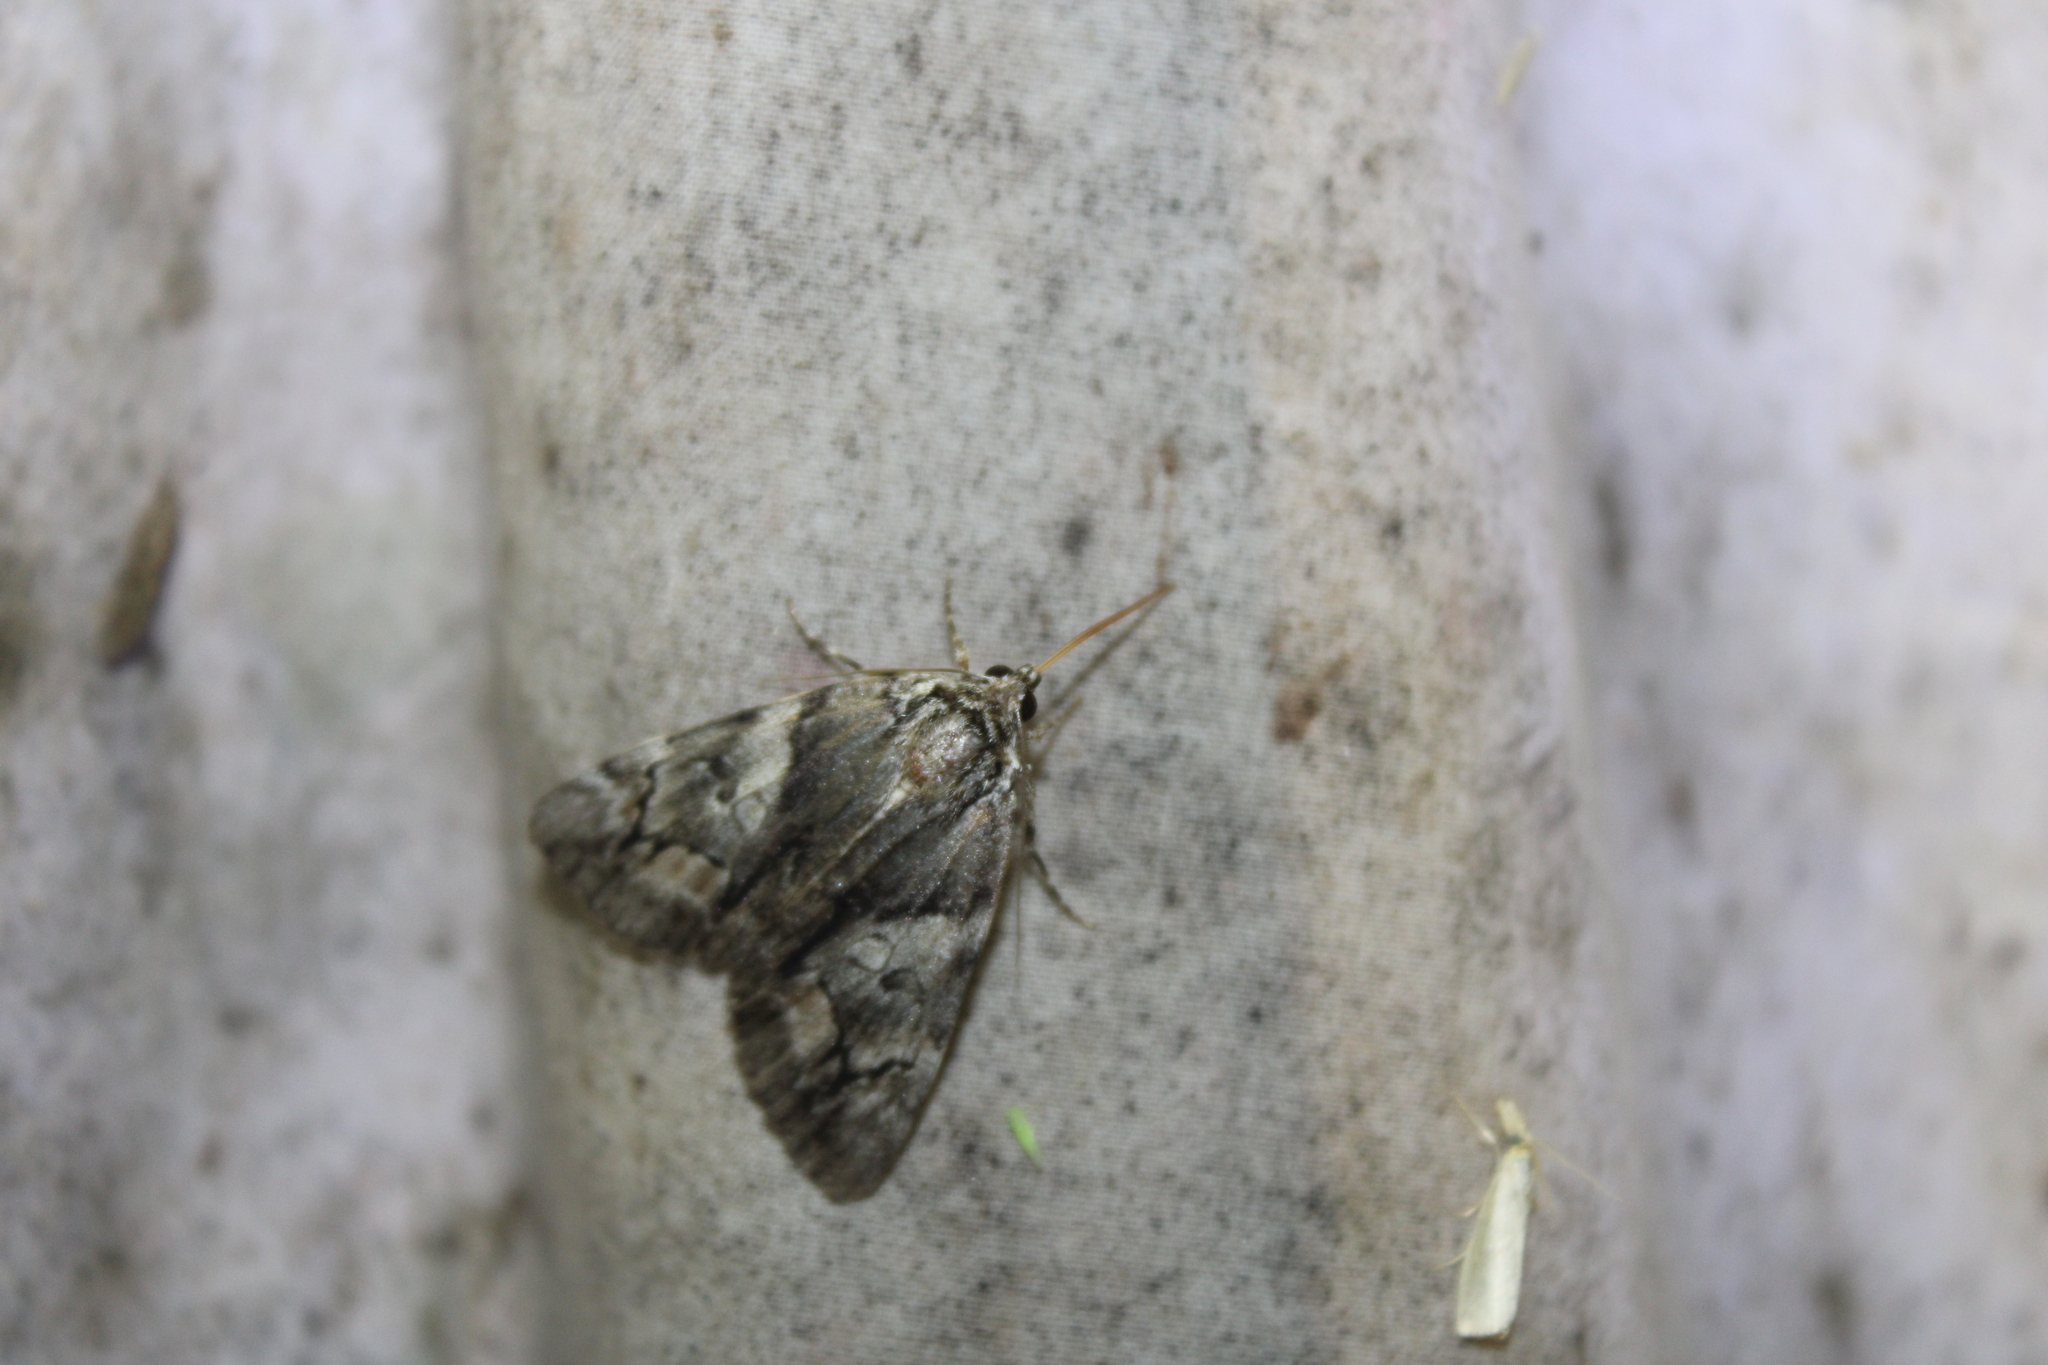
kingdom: Animalia
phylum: Arthropoda
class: Insecta
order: Lepidoptera
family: Erebidae
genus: Catocala
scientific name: Catocala blandula
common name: Charming underwing
